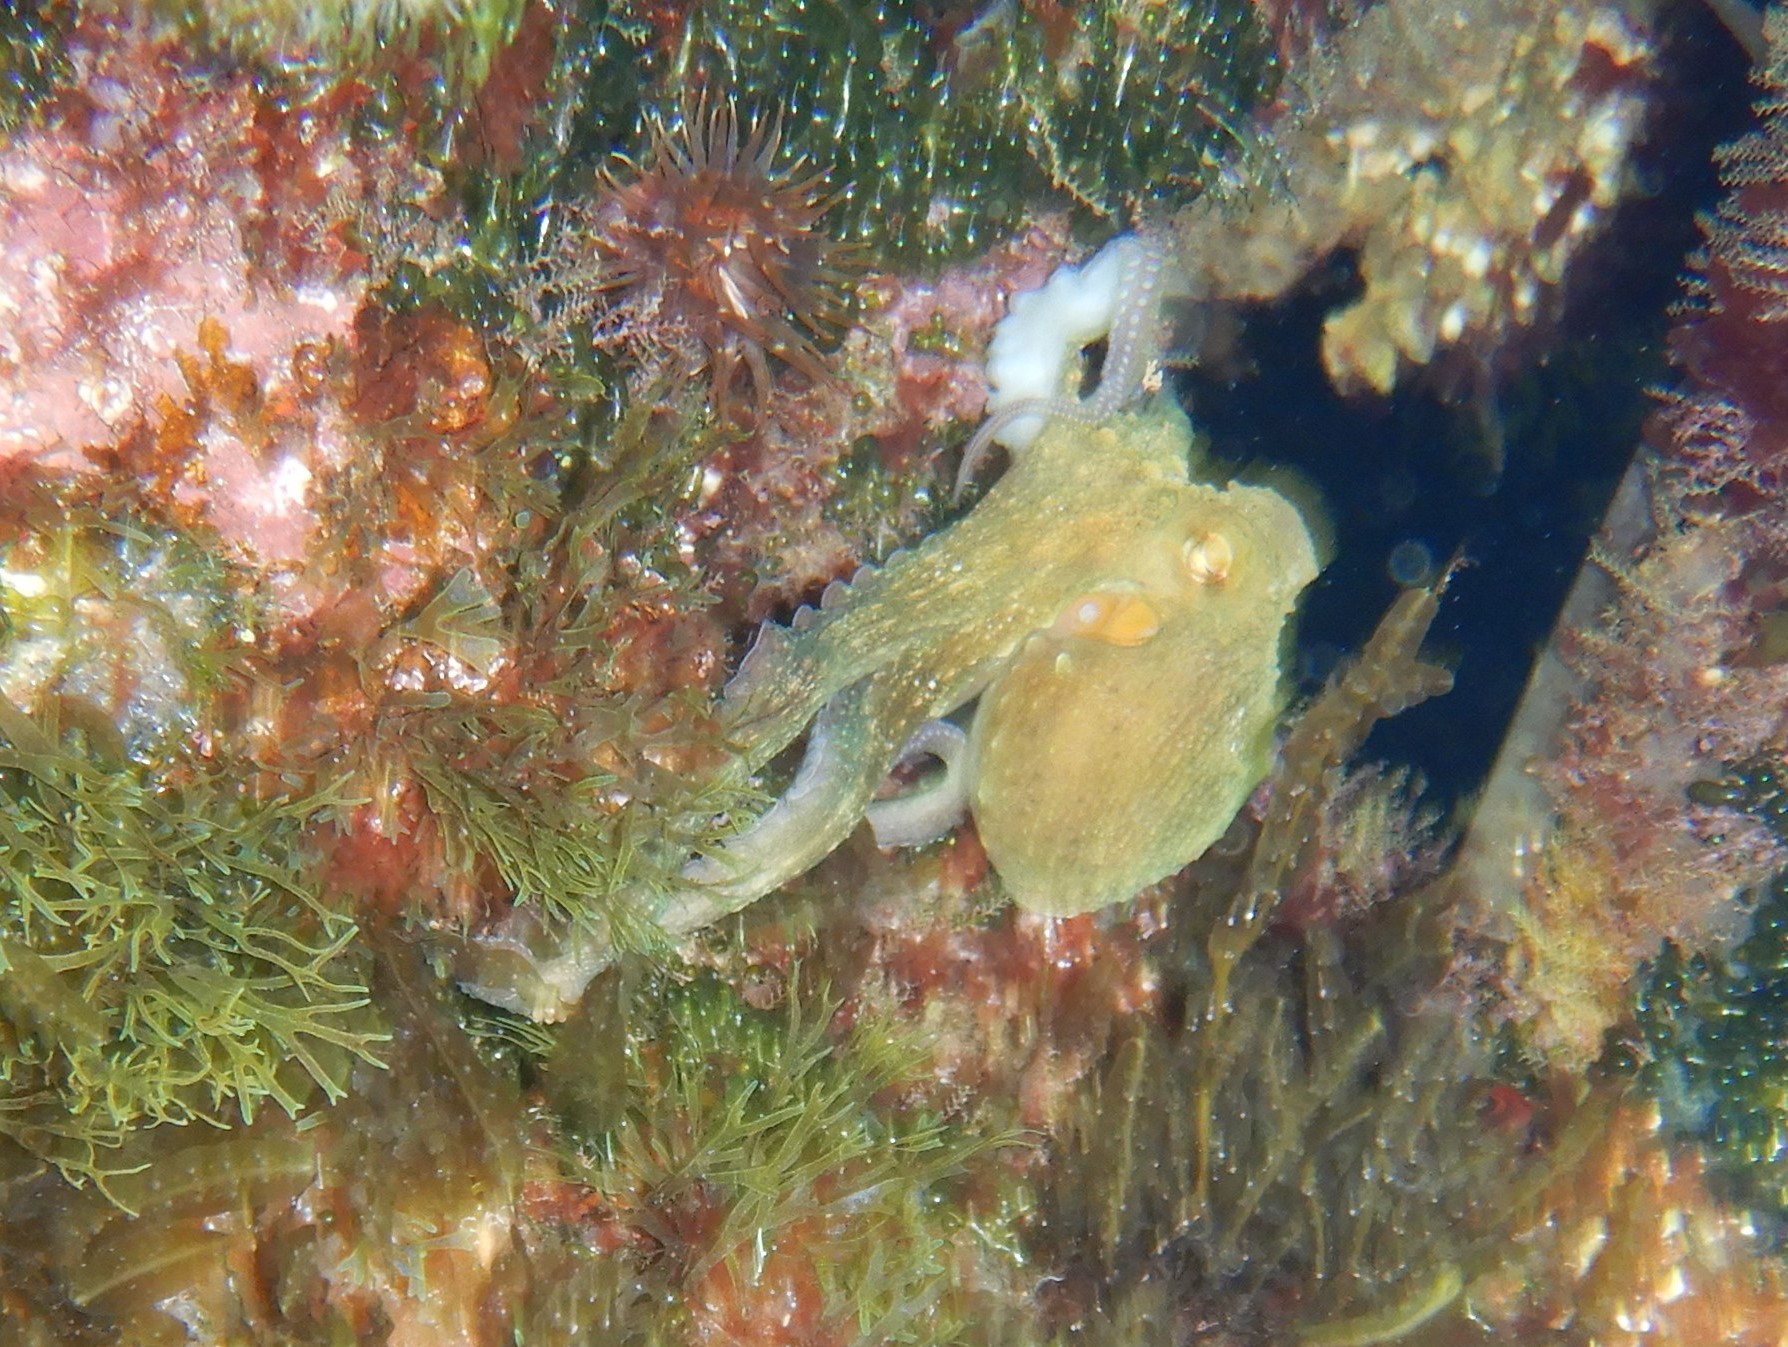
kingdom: Animalia
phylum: Mollusca
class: Cephalopoda
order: Octopoda
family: Octopodidae
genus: Octopus
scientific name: Octopus vulgaris
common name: Common octopus
